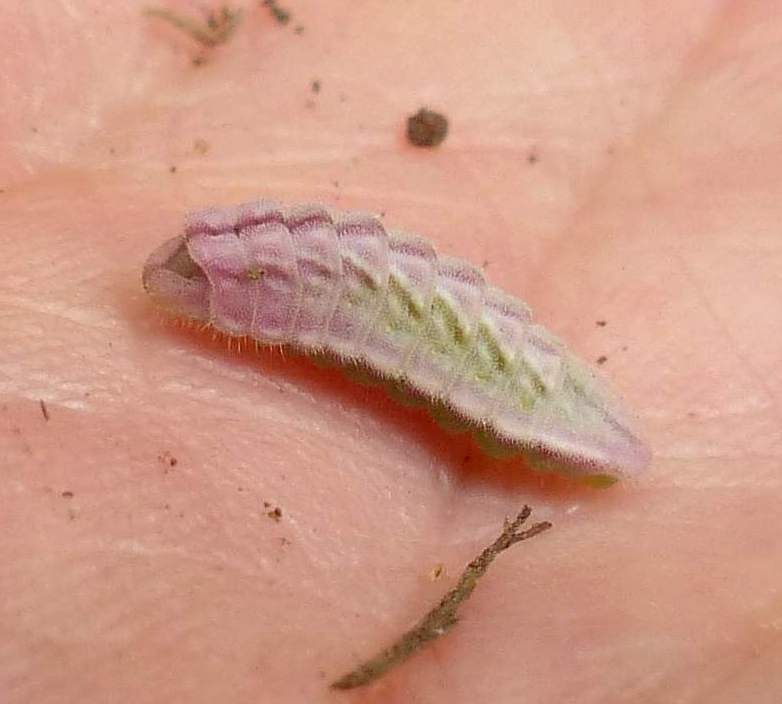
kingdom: Animalia
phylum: Arthropoda
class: Insecta
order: Lepidoptera
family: Lycaenidae
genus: Glaucopsyche
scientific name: Glaucopsyche lygdamus
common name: Silvery blue
